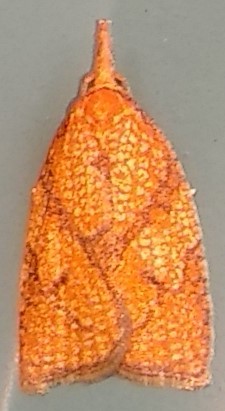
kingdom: Animalia
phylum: Arthropoda
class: Insecta
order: Lepidoptera
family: Tortricidae
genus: Cenopis
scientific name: Cenopis reticulatana
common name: Reticulated fruitworm moth
